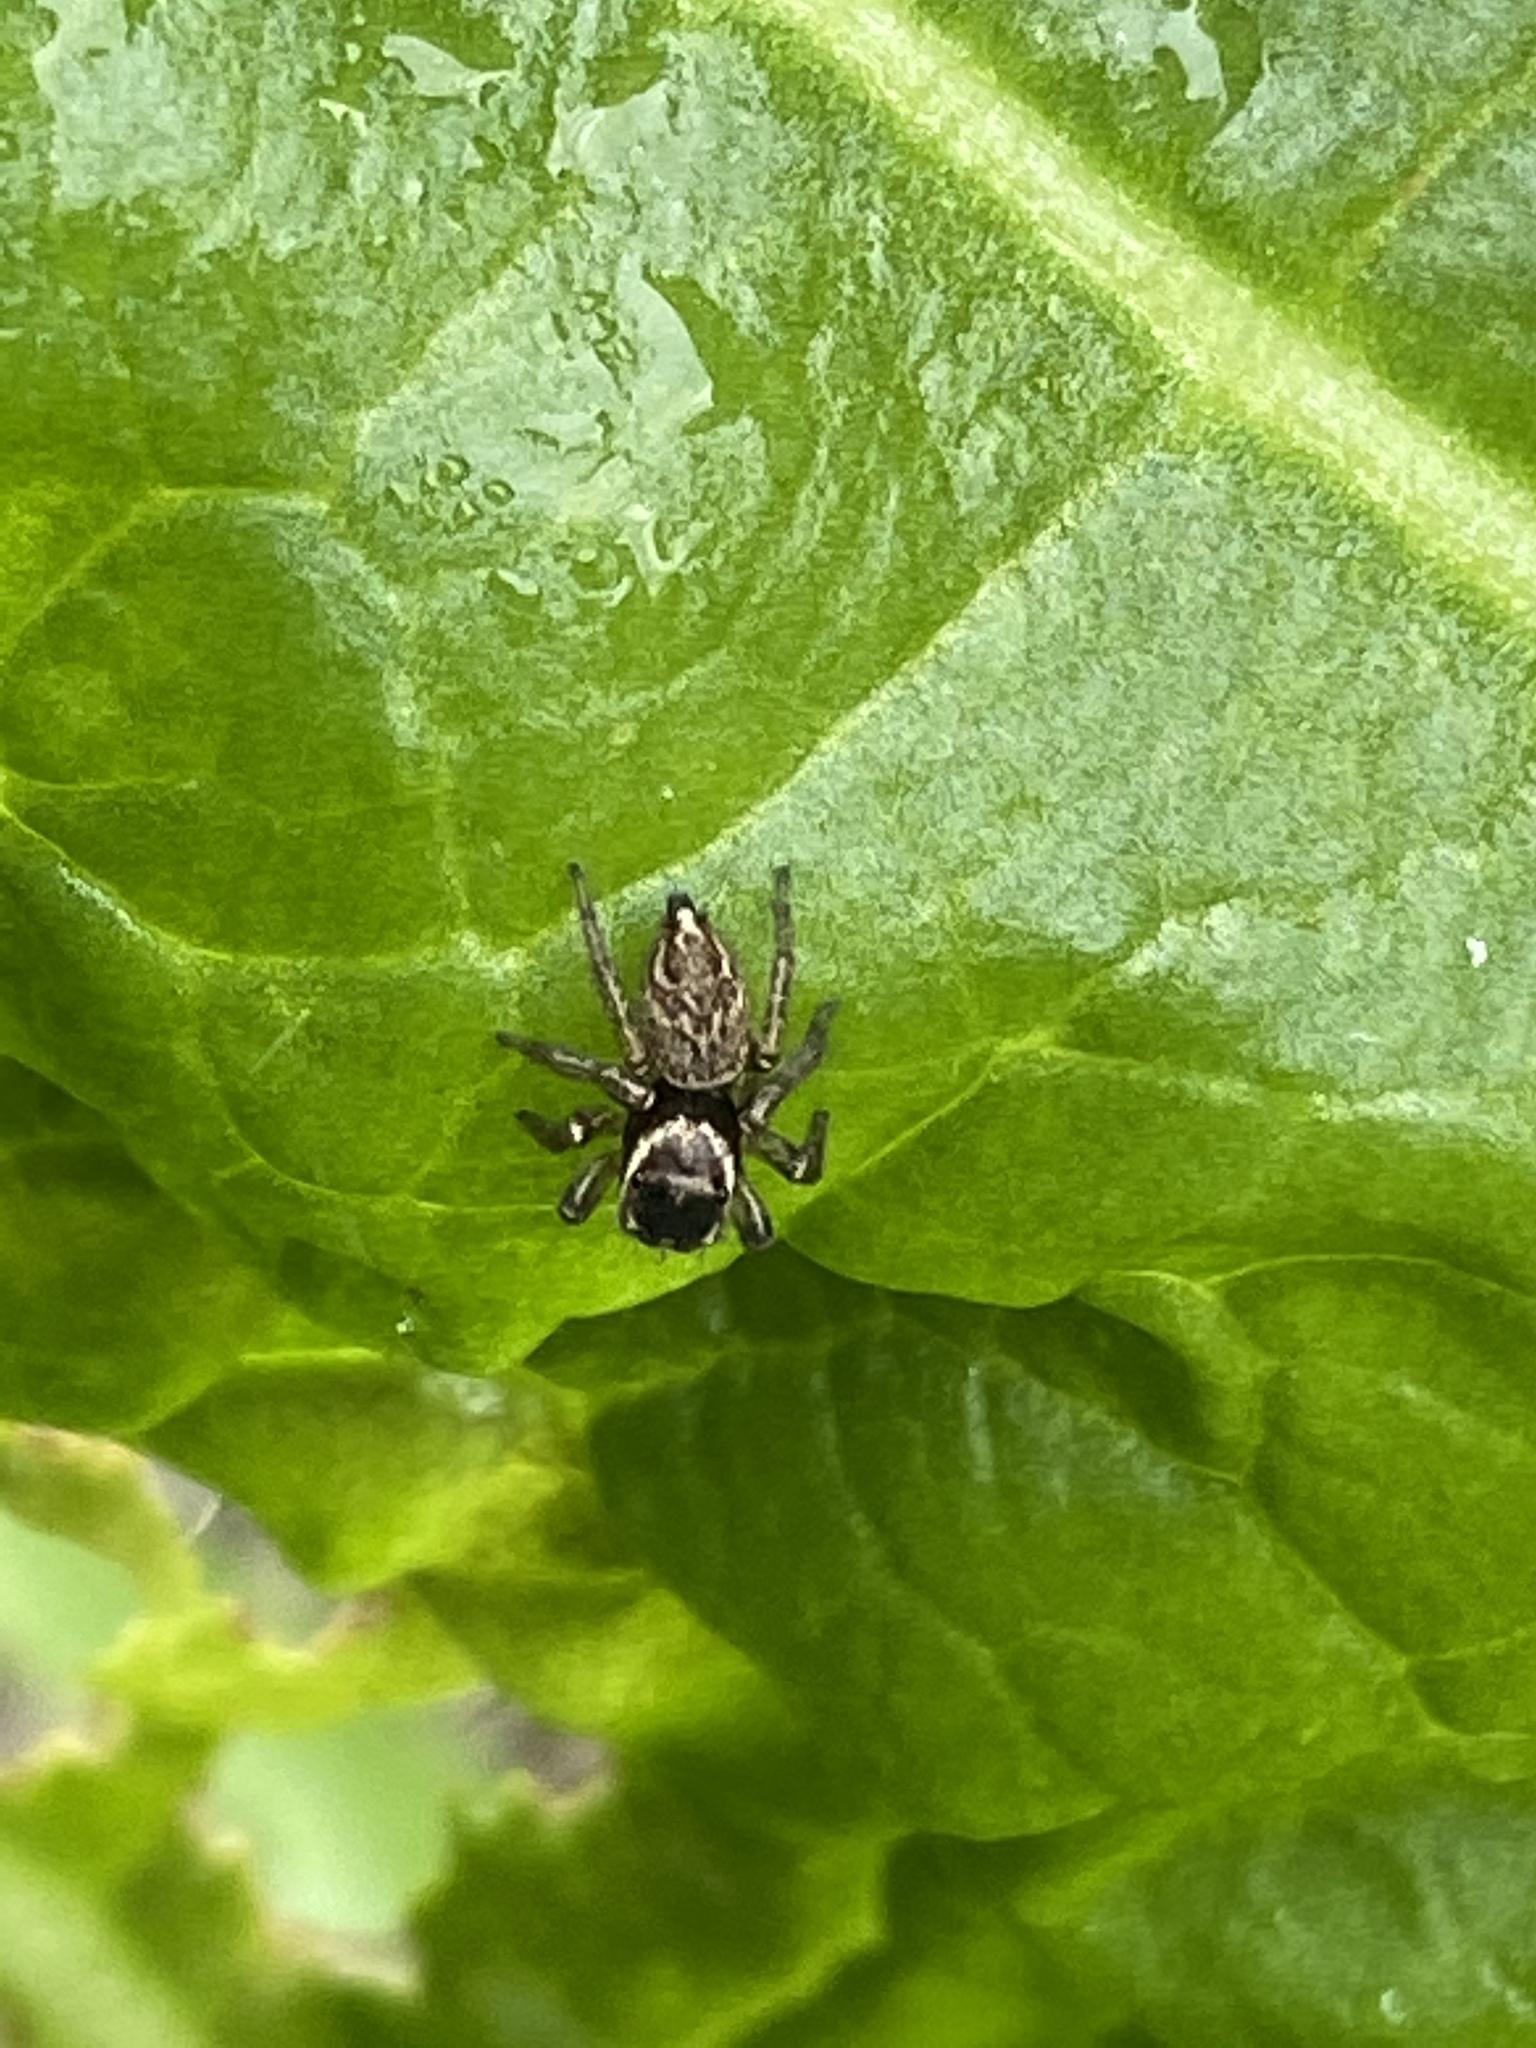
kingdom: Animalia
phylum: Arthropoda
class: Arachnida
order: Araneae
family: Salticidae
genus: Maratus
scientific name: Maratus griseus
